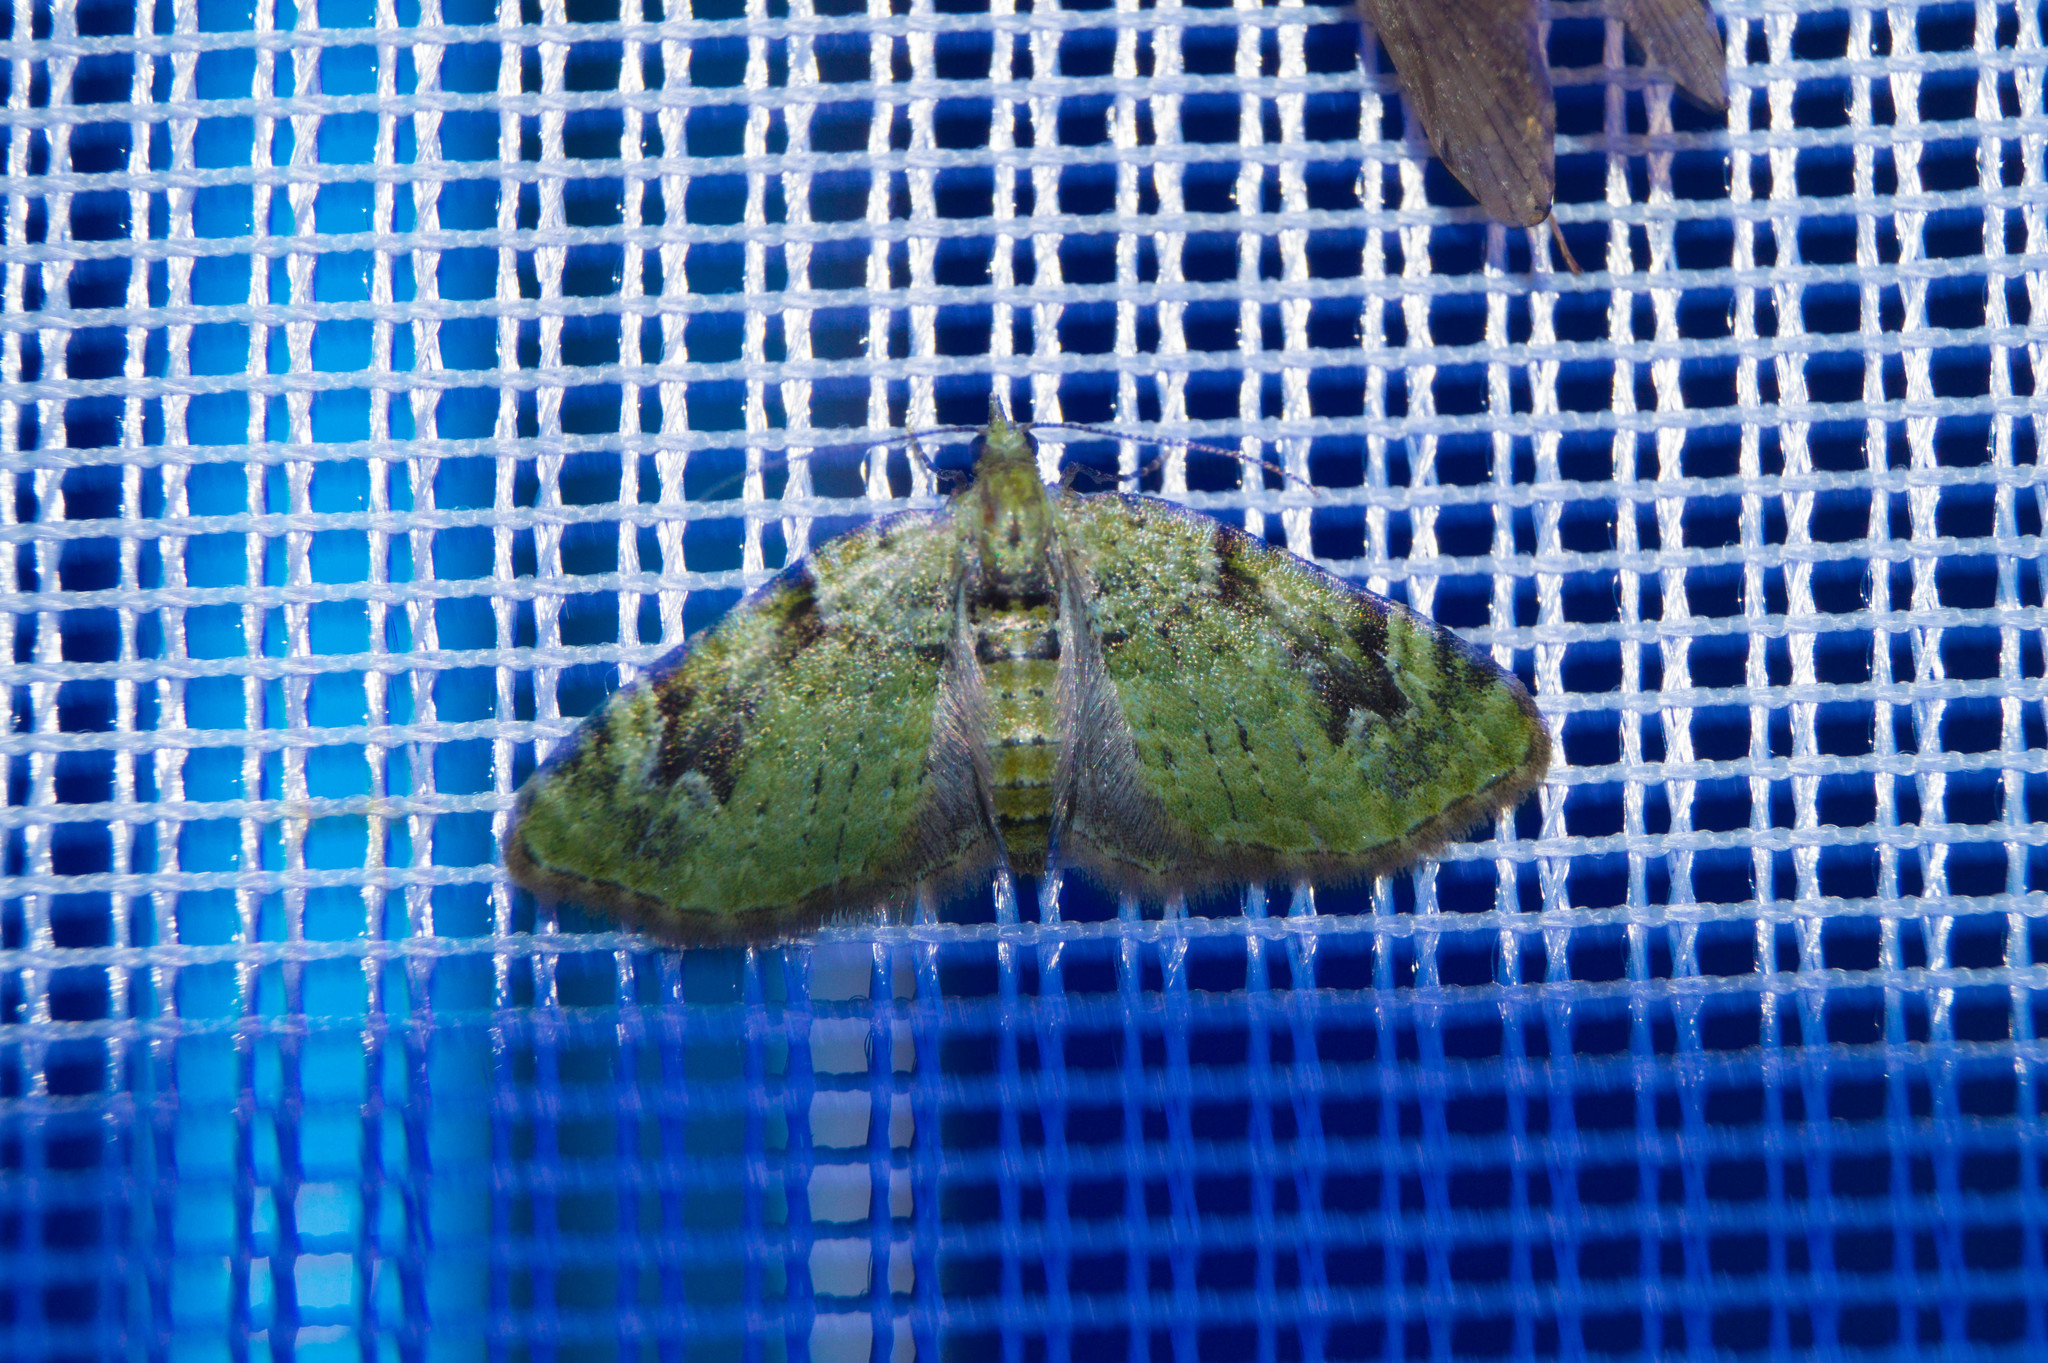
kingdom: Animalia
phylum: Arthropoda
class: Insecta
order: Lepidoptera
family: Geometridae
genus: Chloroclystis
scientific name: Chloroclystis v-ata
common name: V-pug
